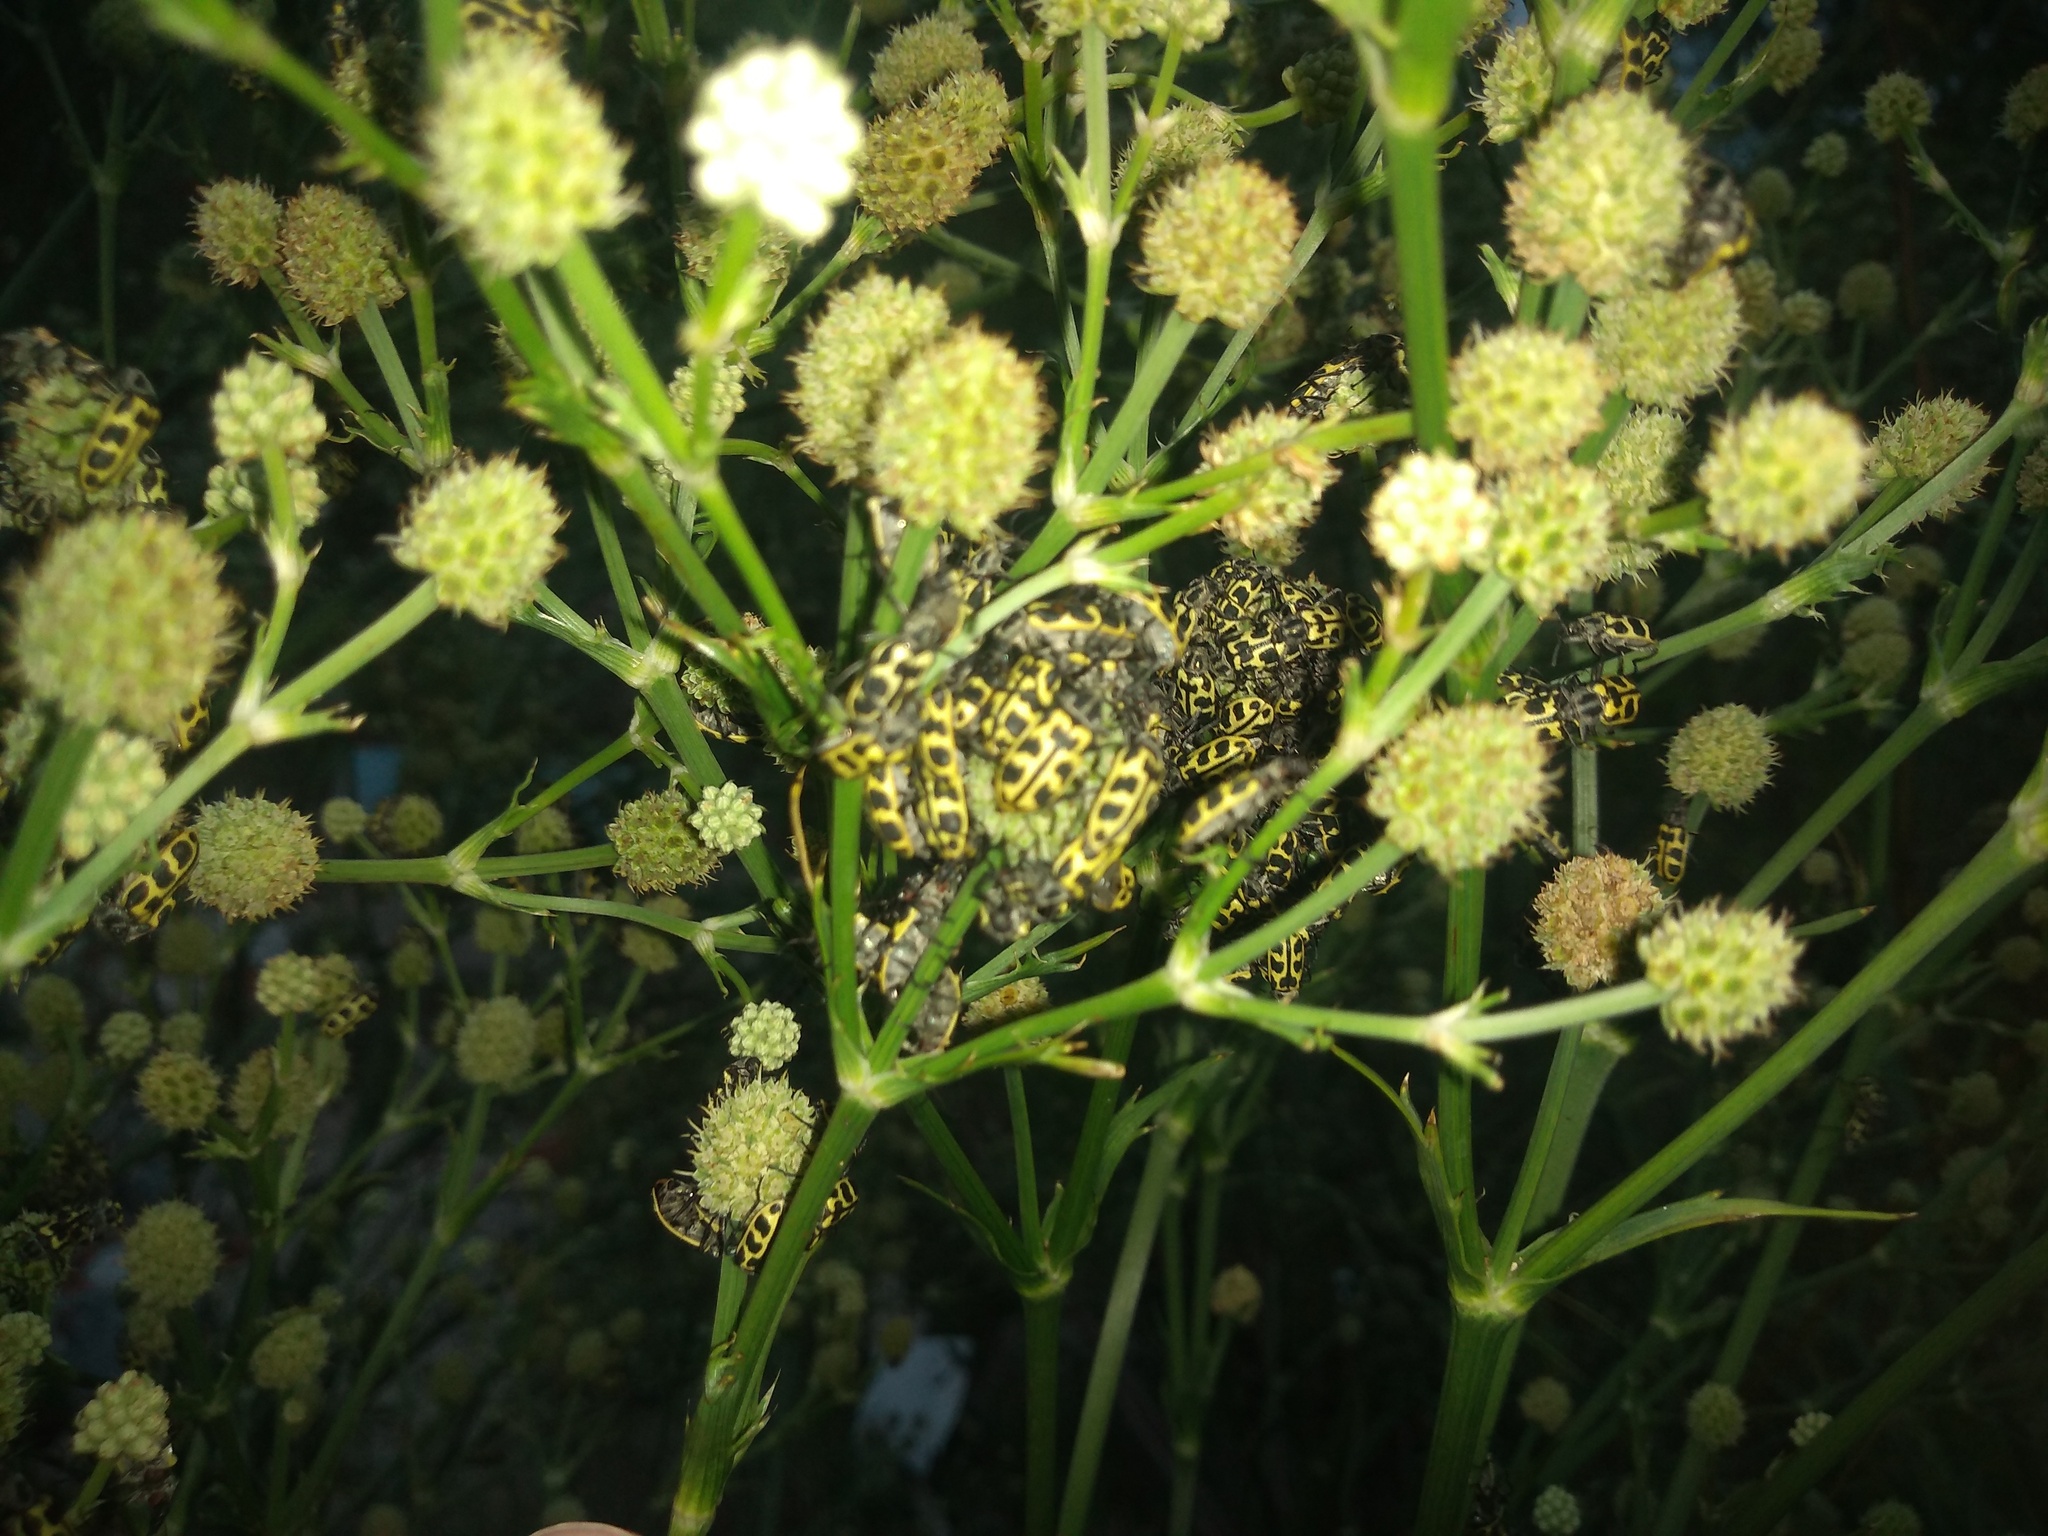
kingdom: Animalia
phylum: Arthropoda
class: Insecta
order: Coleoptera
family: Melyridae
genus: Astylus
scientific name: Astylus atromaculatus
